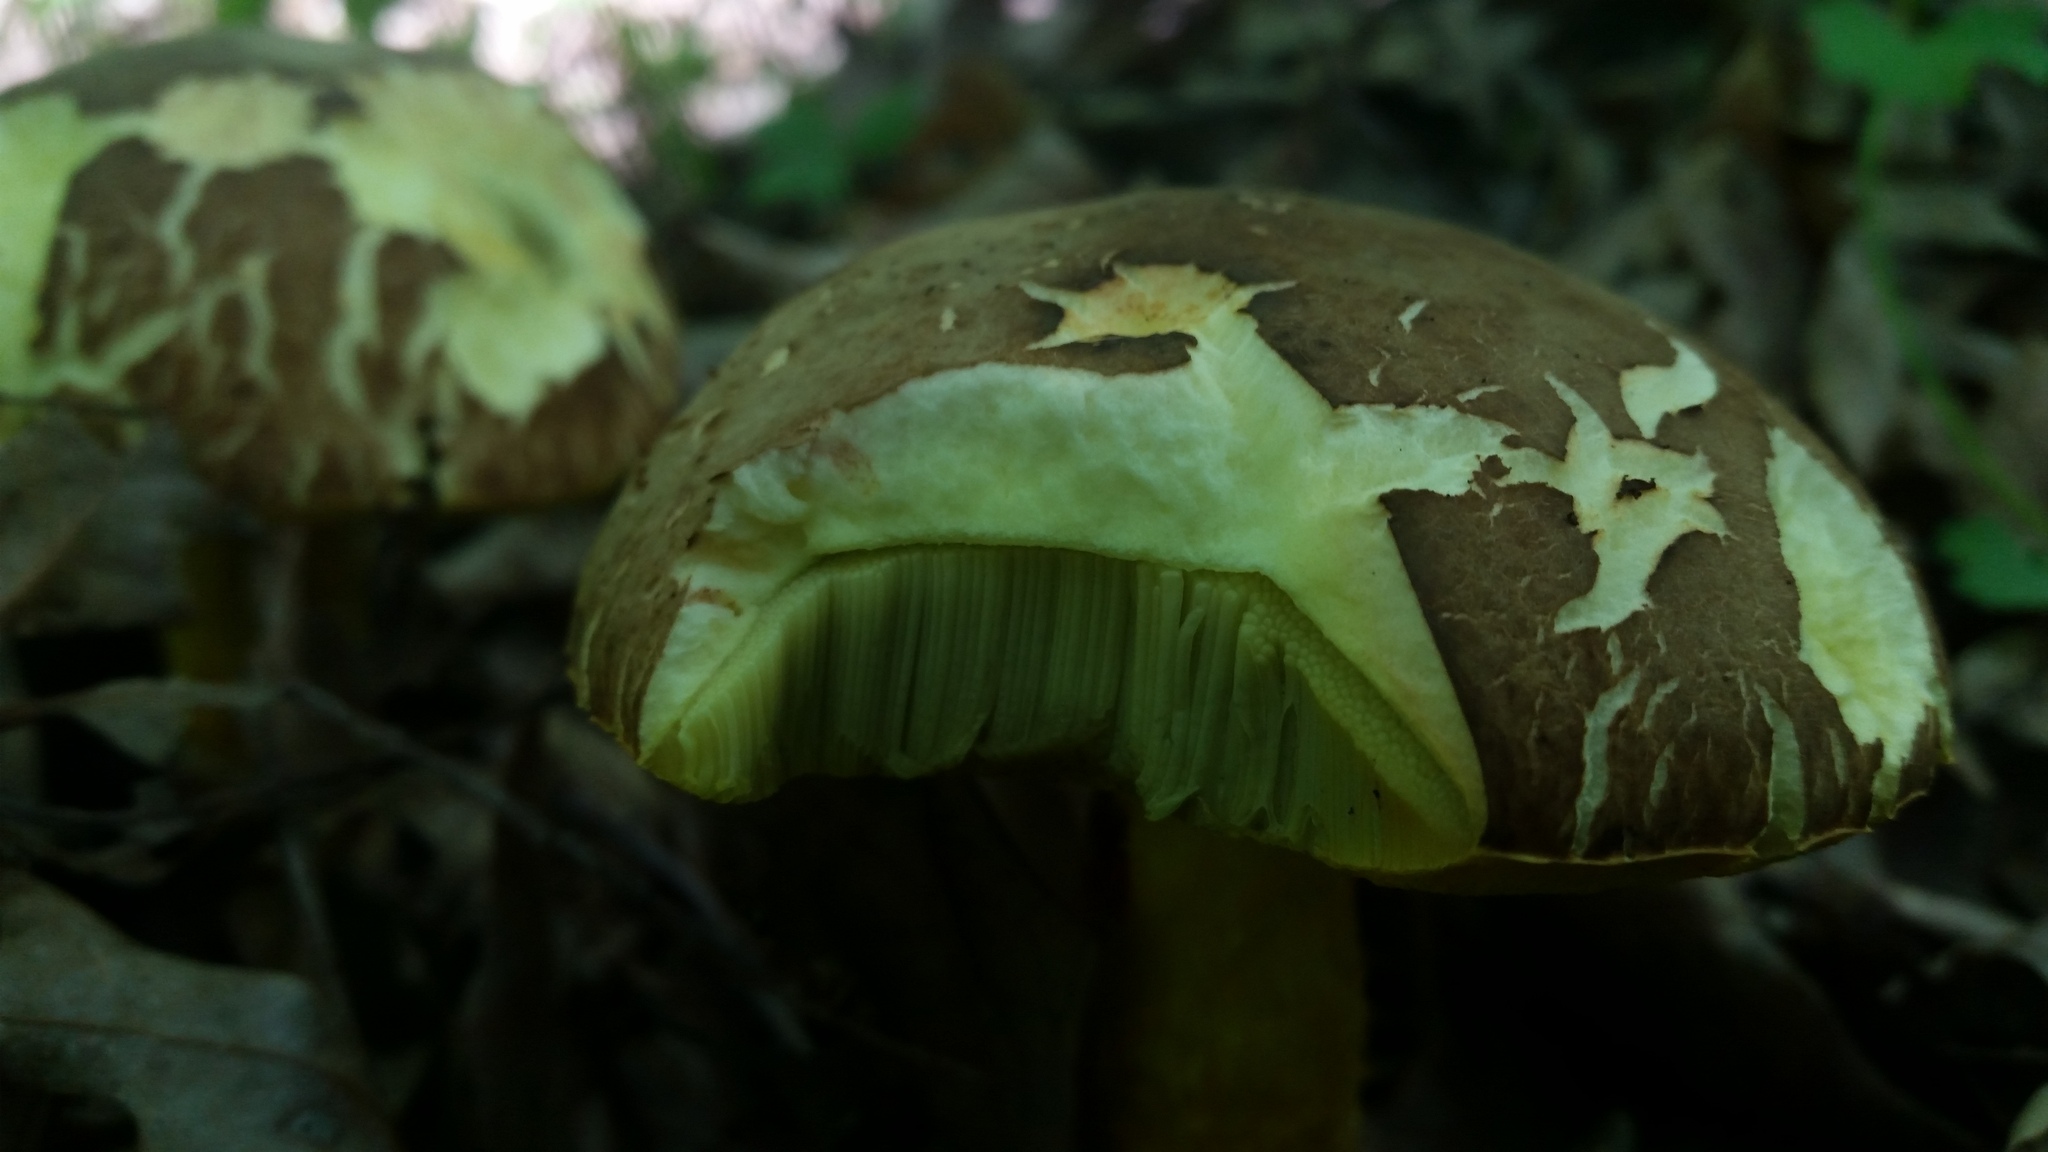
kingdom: Fungi
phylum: Basidiomycota
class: Agaricomycetes
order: Boletales
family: Boletaceae
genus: Hemileccinum
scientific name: Hemileccinum subglabripes
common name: Smoothish-stemmed bolete
